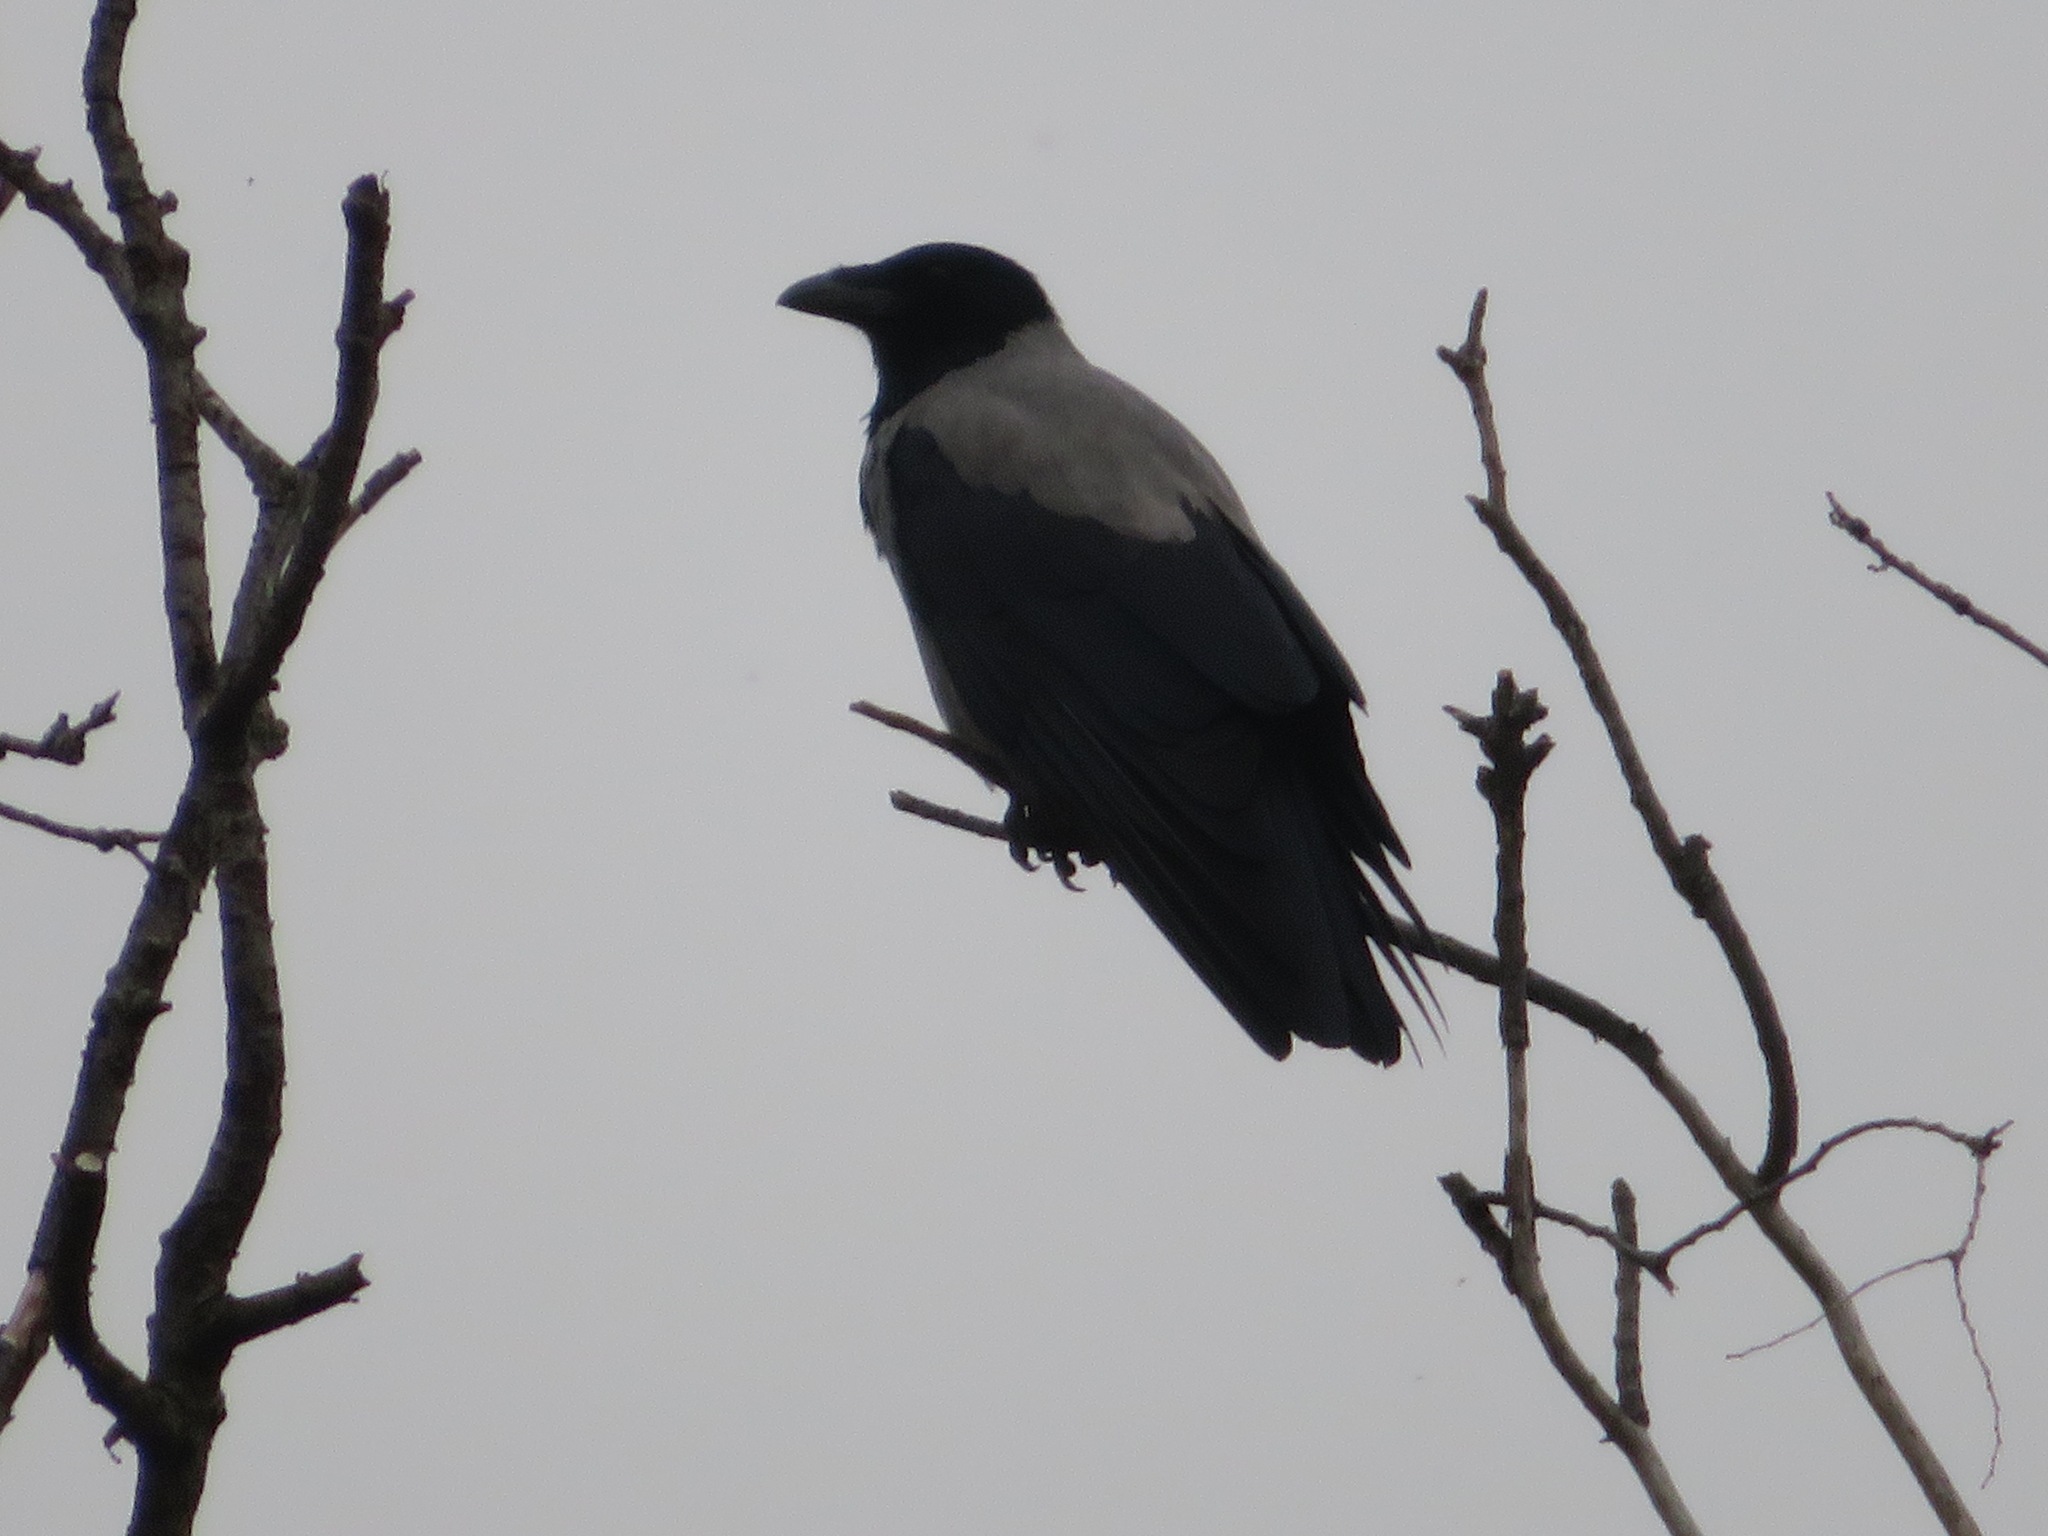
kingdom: Animalia
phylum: Chordata
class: Aves
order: Passeriformes
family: Corvidae
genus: Corvus
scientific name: Corvus cornix
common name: Hooded crow
